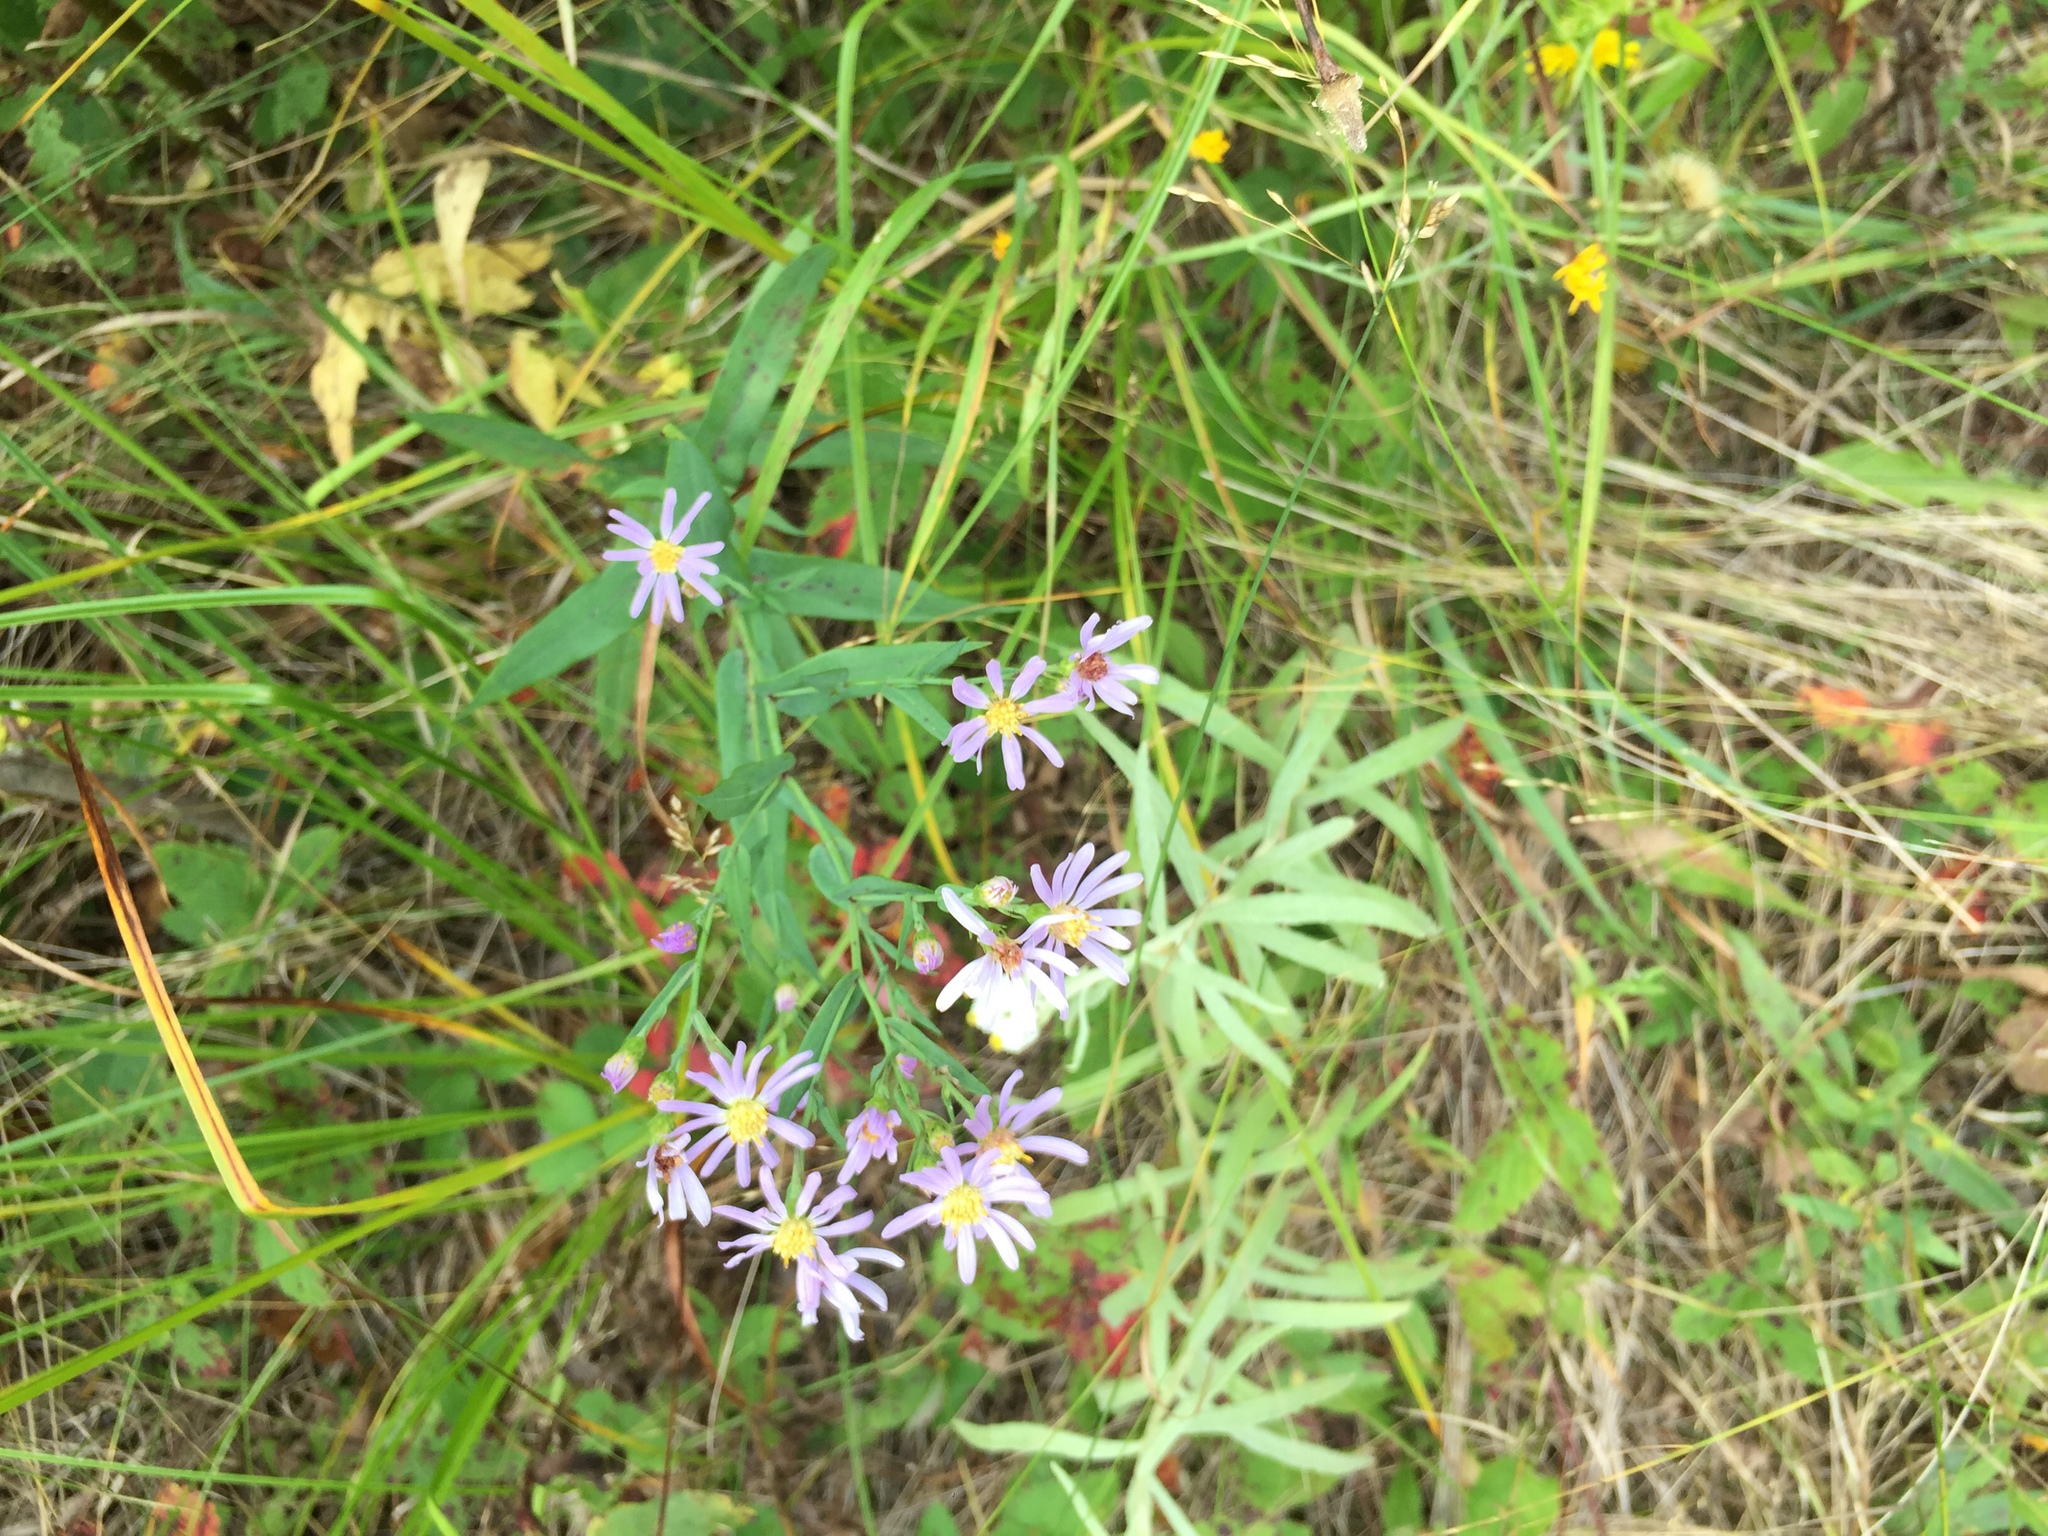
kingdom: Plantae
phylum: Tracheophyta
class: Magnoliopsida
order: Asterales
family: Asteraceae
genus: Symphyotrichum
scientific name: Symphyotrichum laeve
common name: Glaucous aster
